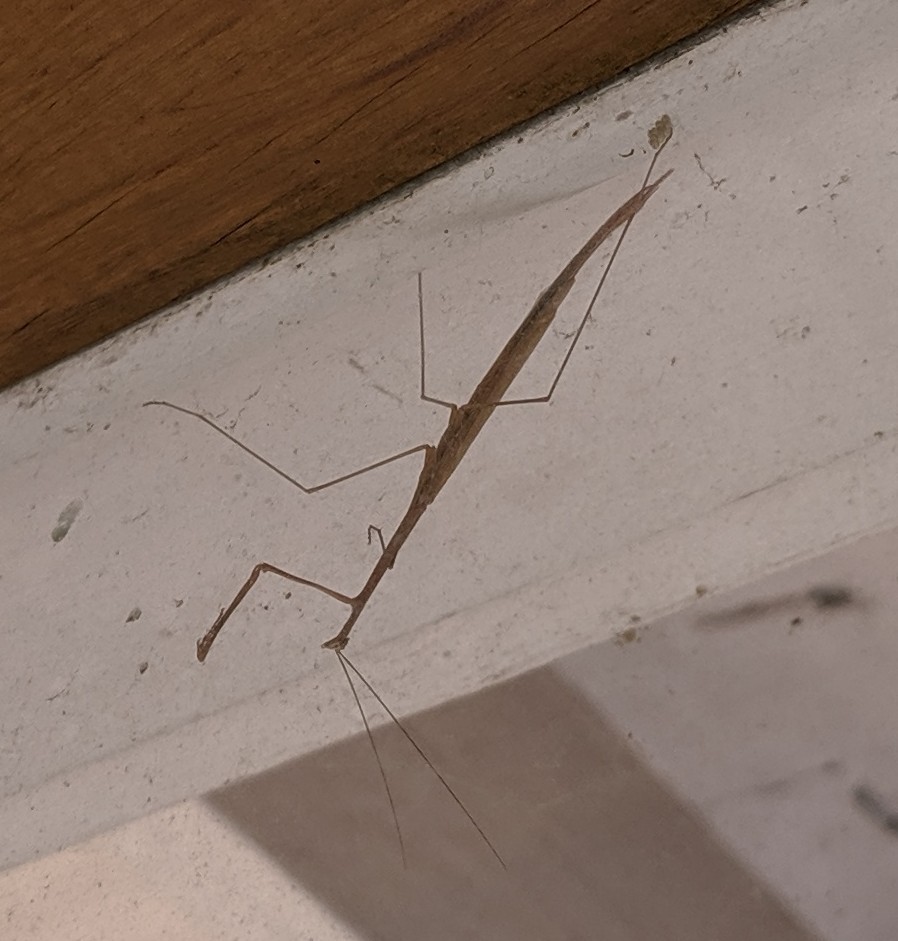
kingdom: Animalia
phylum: Arthropoda
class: Insecta
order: Mantodea
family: Thespidae
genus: Thesprotia
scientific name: Thesprotia graminis
